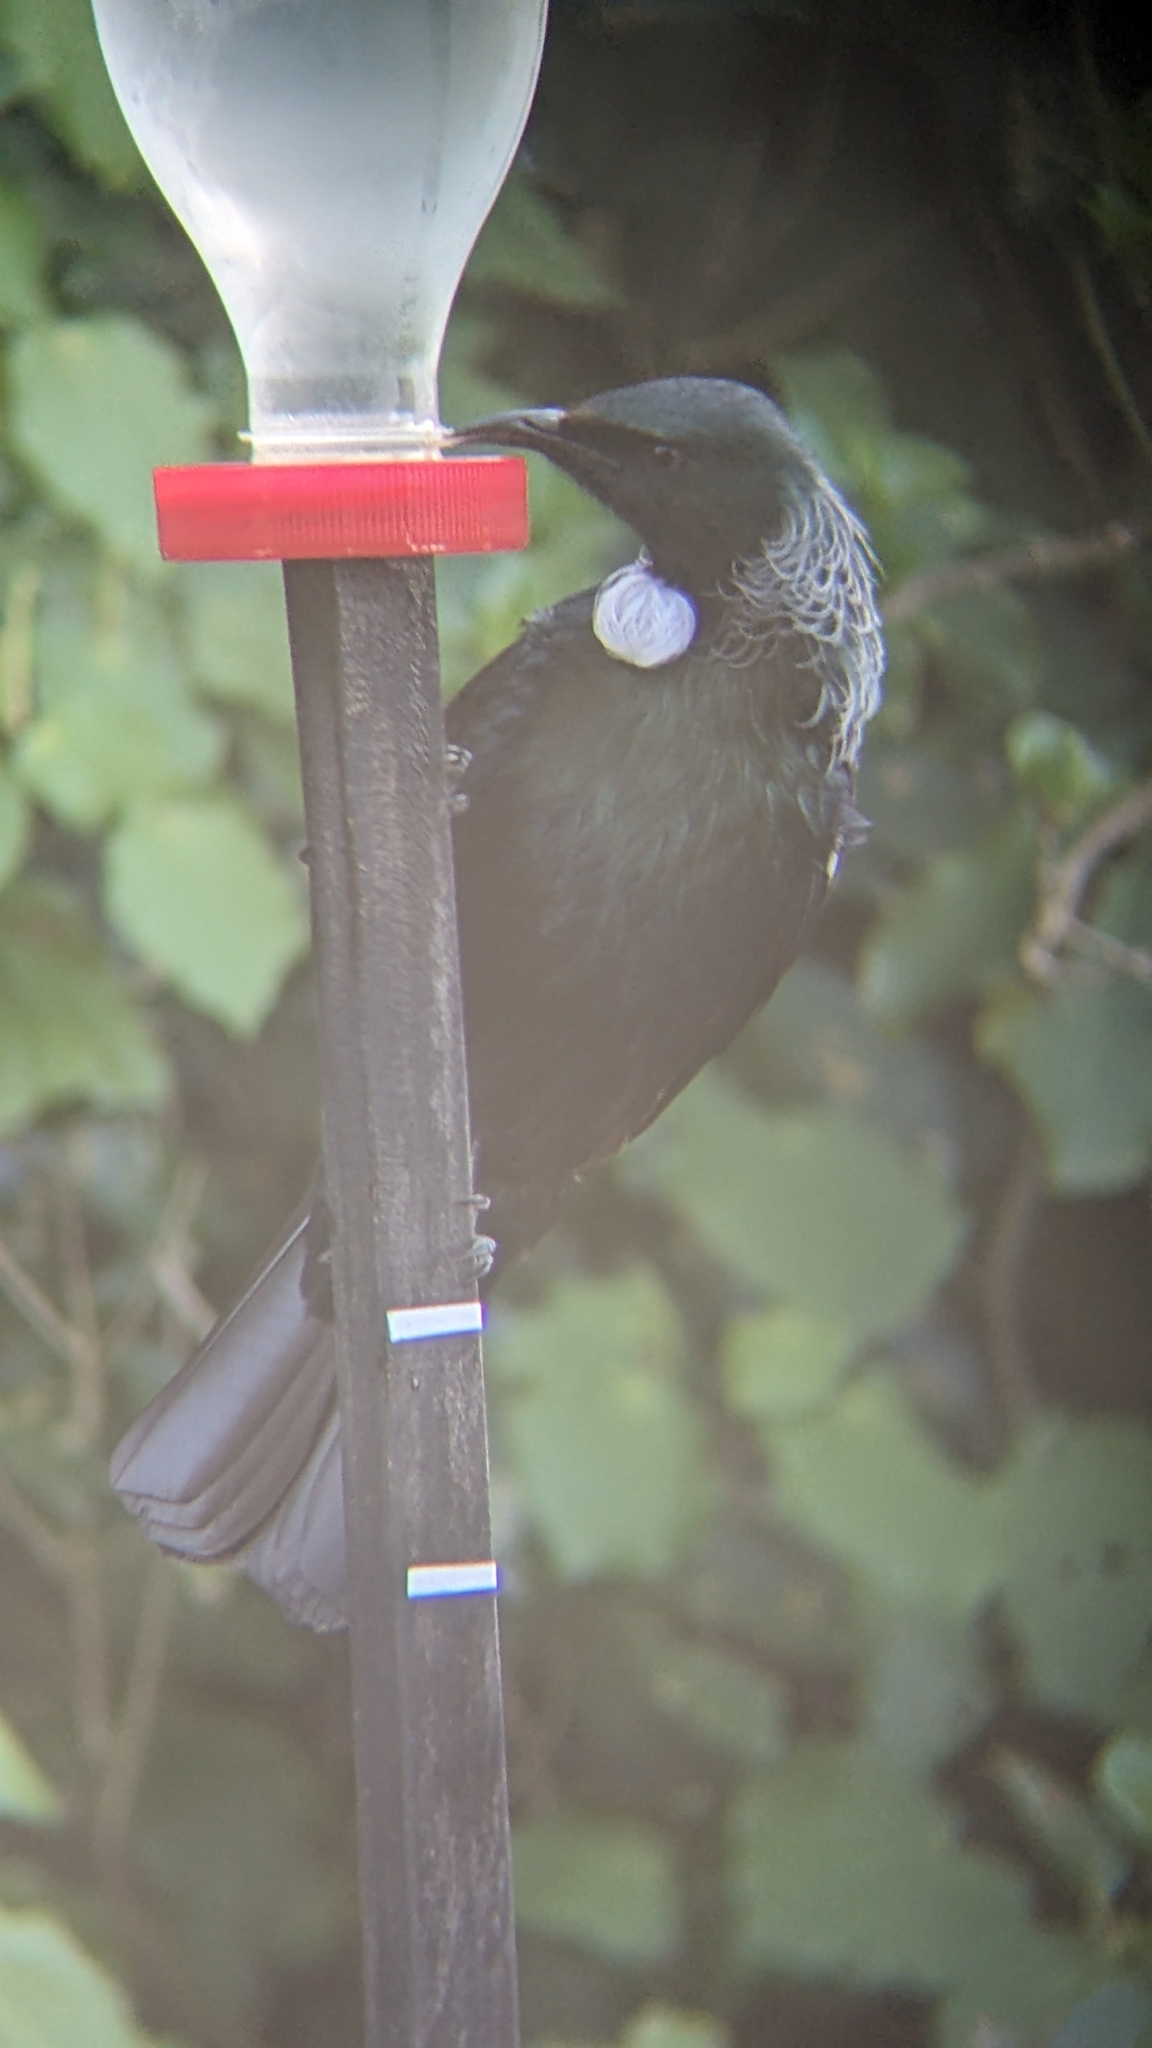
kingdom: Animalia
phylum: Chordata
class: Aves
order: Passeriformes
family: Meliphagidae
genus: Prosthemadera
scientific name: Prosthemadera novaeseelandiae
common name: Tui
